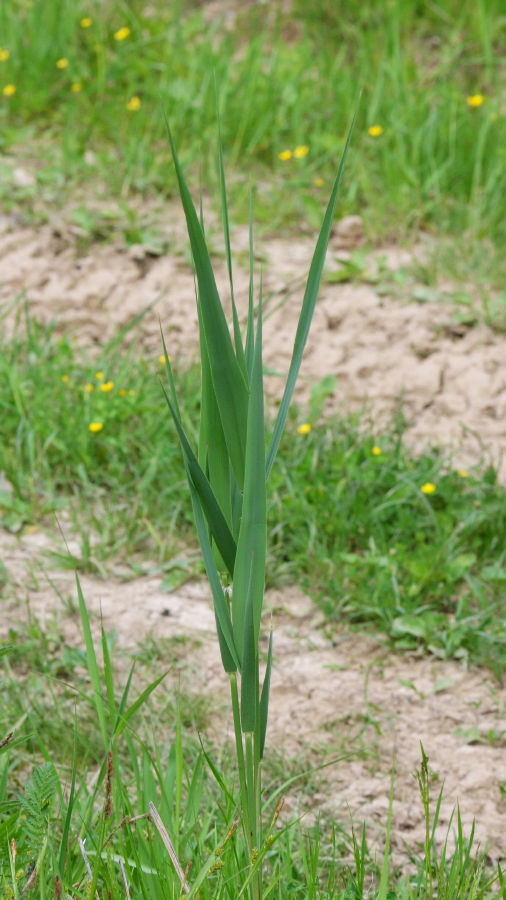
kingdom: Plantae
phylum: Tracheophyta
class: Liliopsida
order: Poales
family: Poaceae
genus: Phragmites
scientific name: Phragmites australis
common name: Common reed
